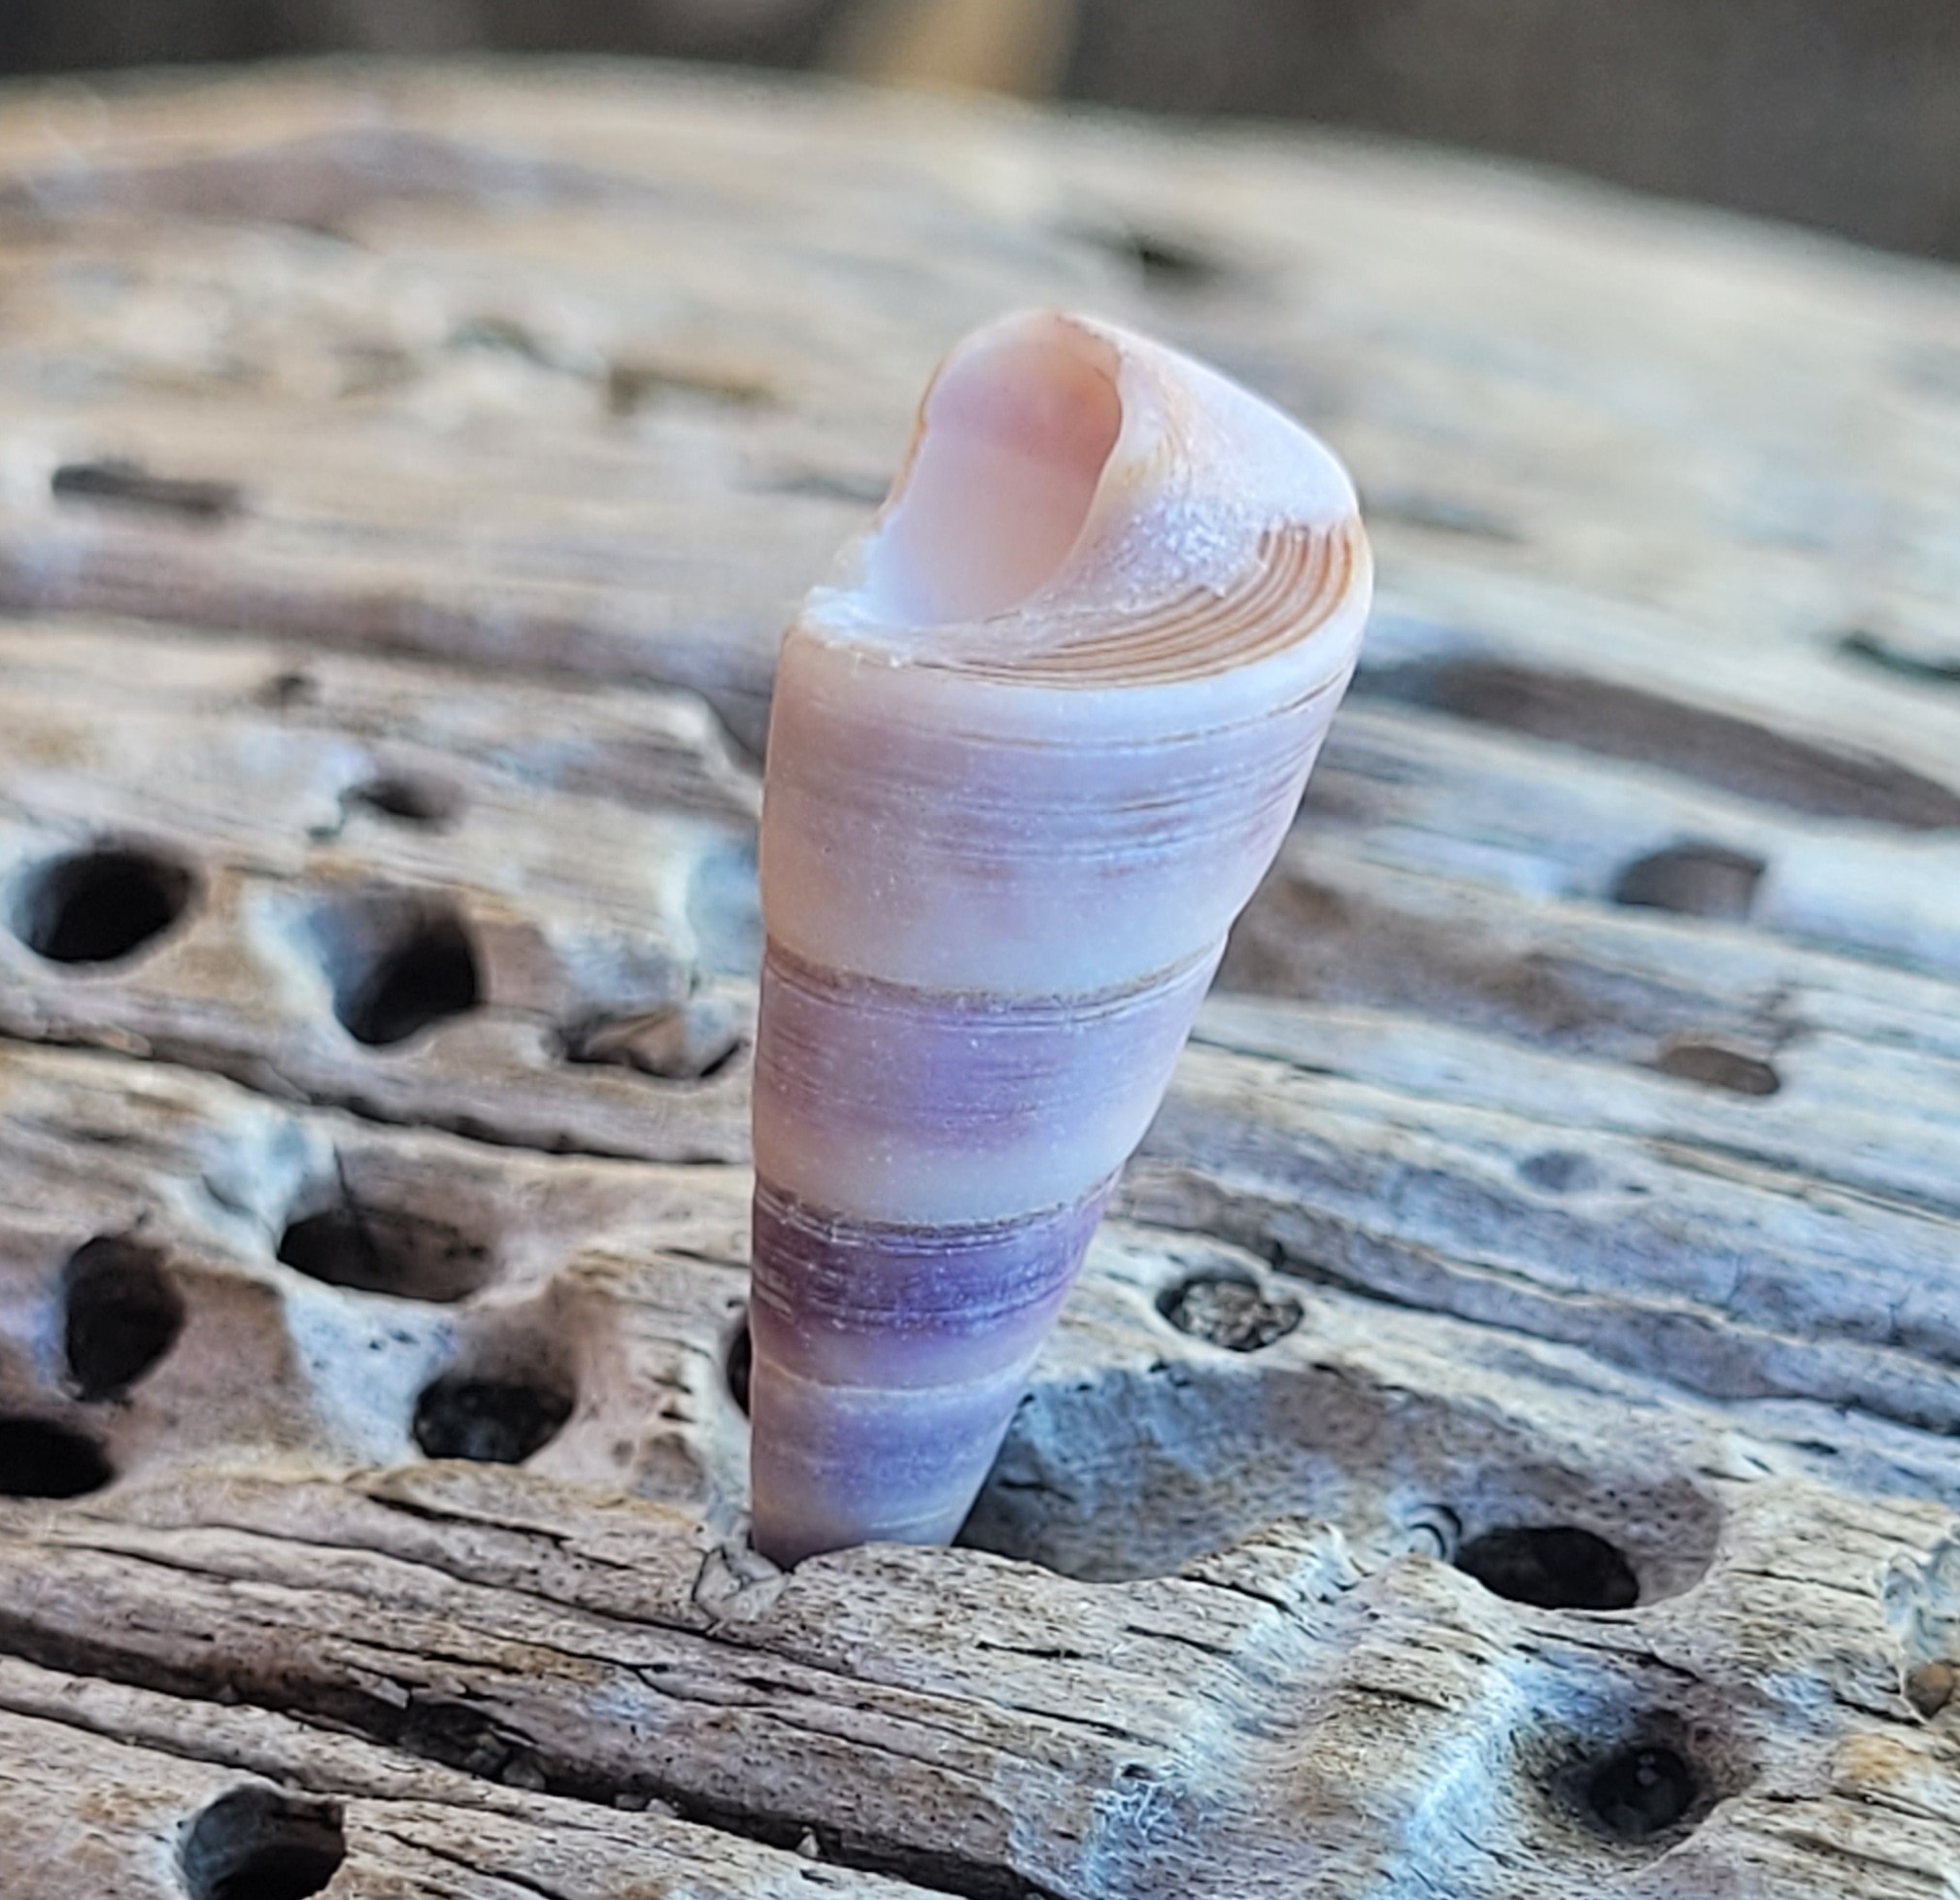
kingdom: Animalia
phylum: Mollusca
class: Gastropoda
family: Turritellidae
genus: Maoricolpus
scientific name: Maoricolpus roseus
